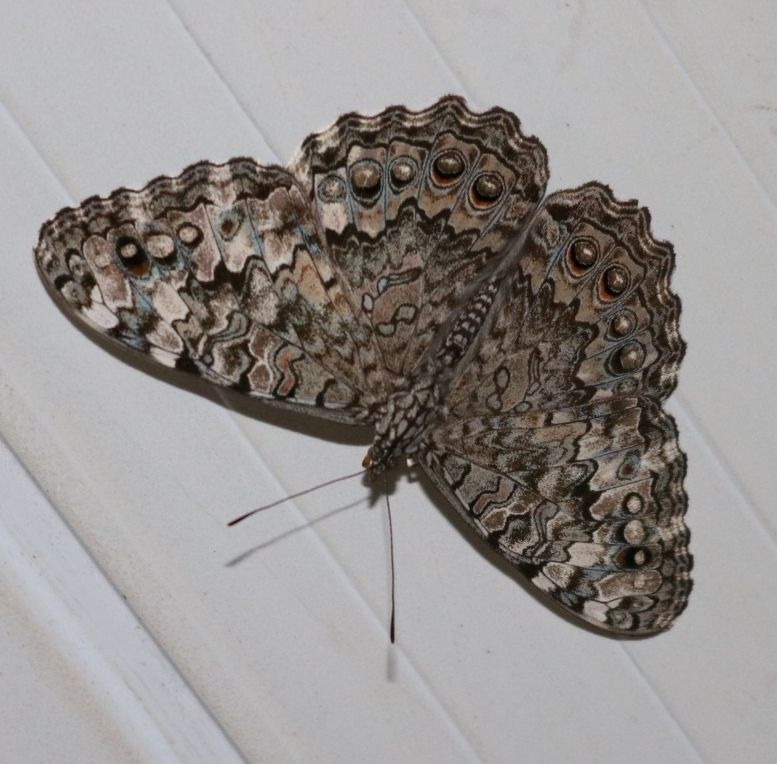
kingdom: Animalia
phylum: Arthropoda
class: Insecta
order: Lepidoptera
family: Nymphalidae
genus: Hamadryas
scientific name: Hamadryas epinome
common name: Epinome cracker
